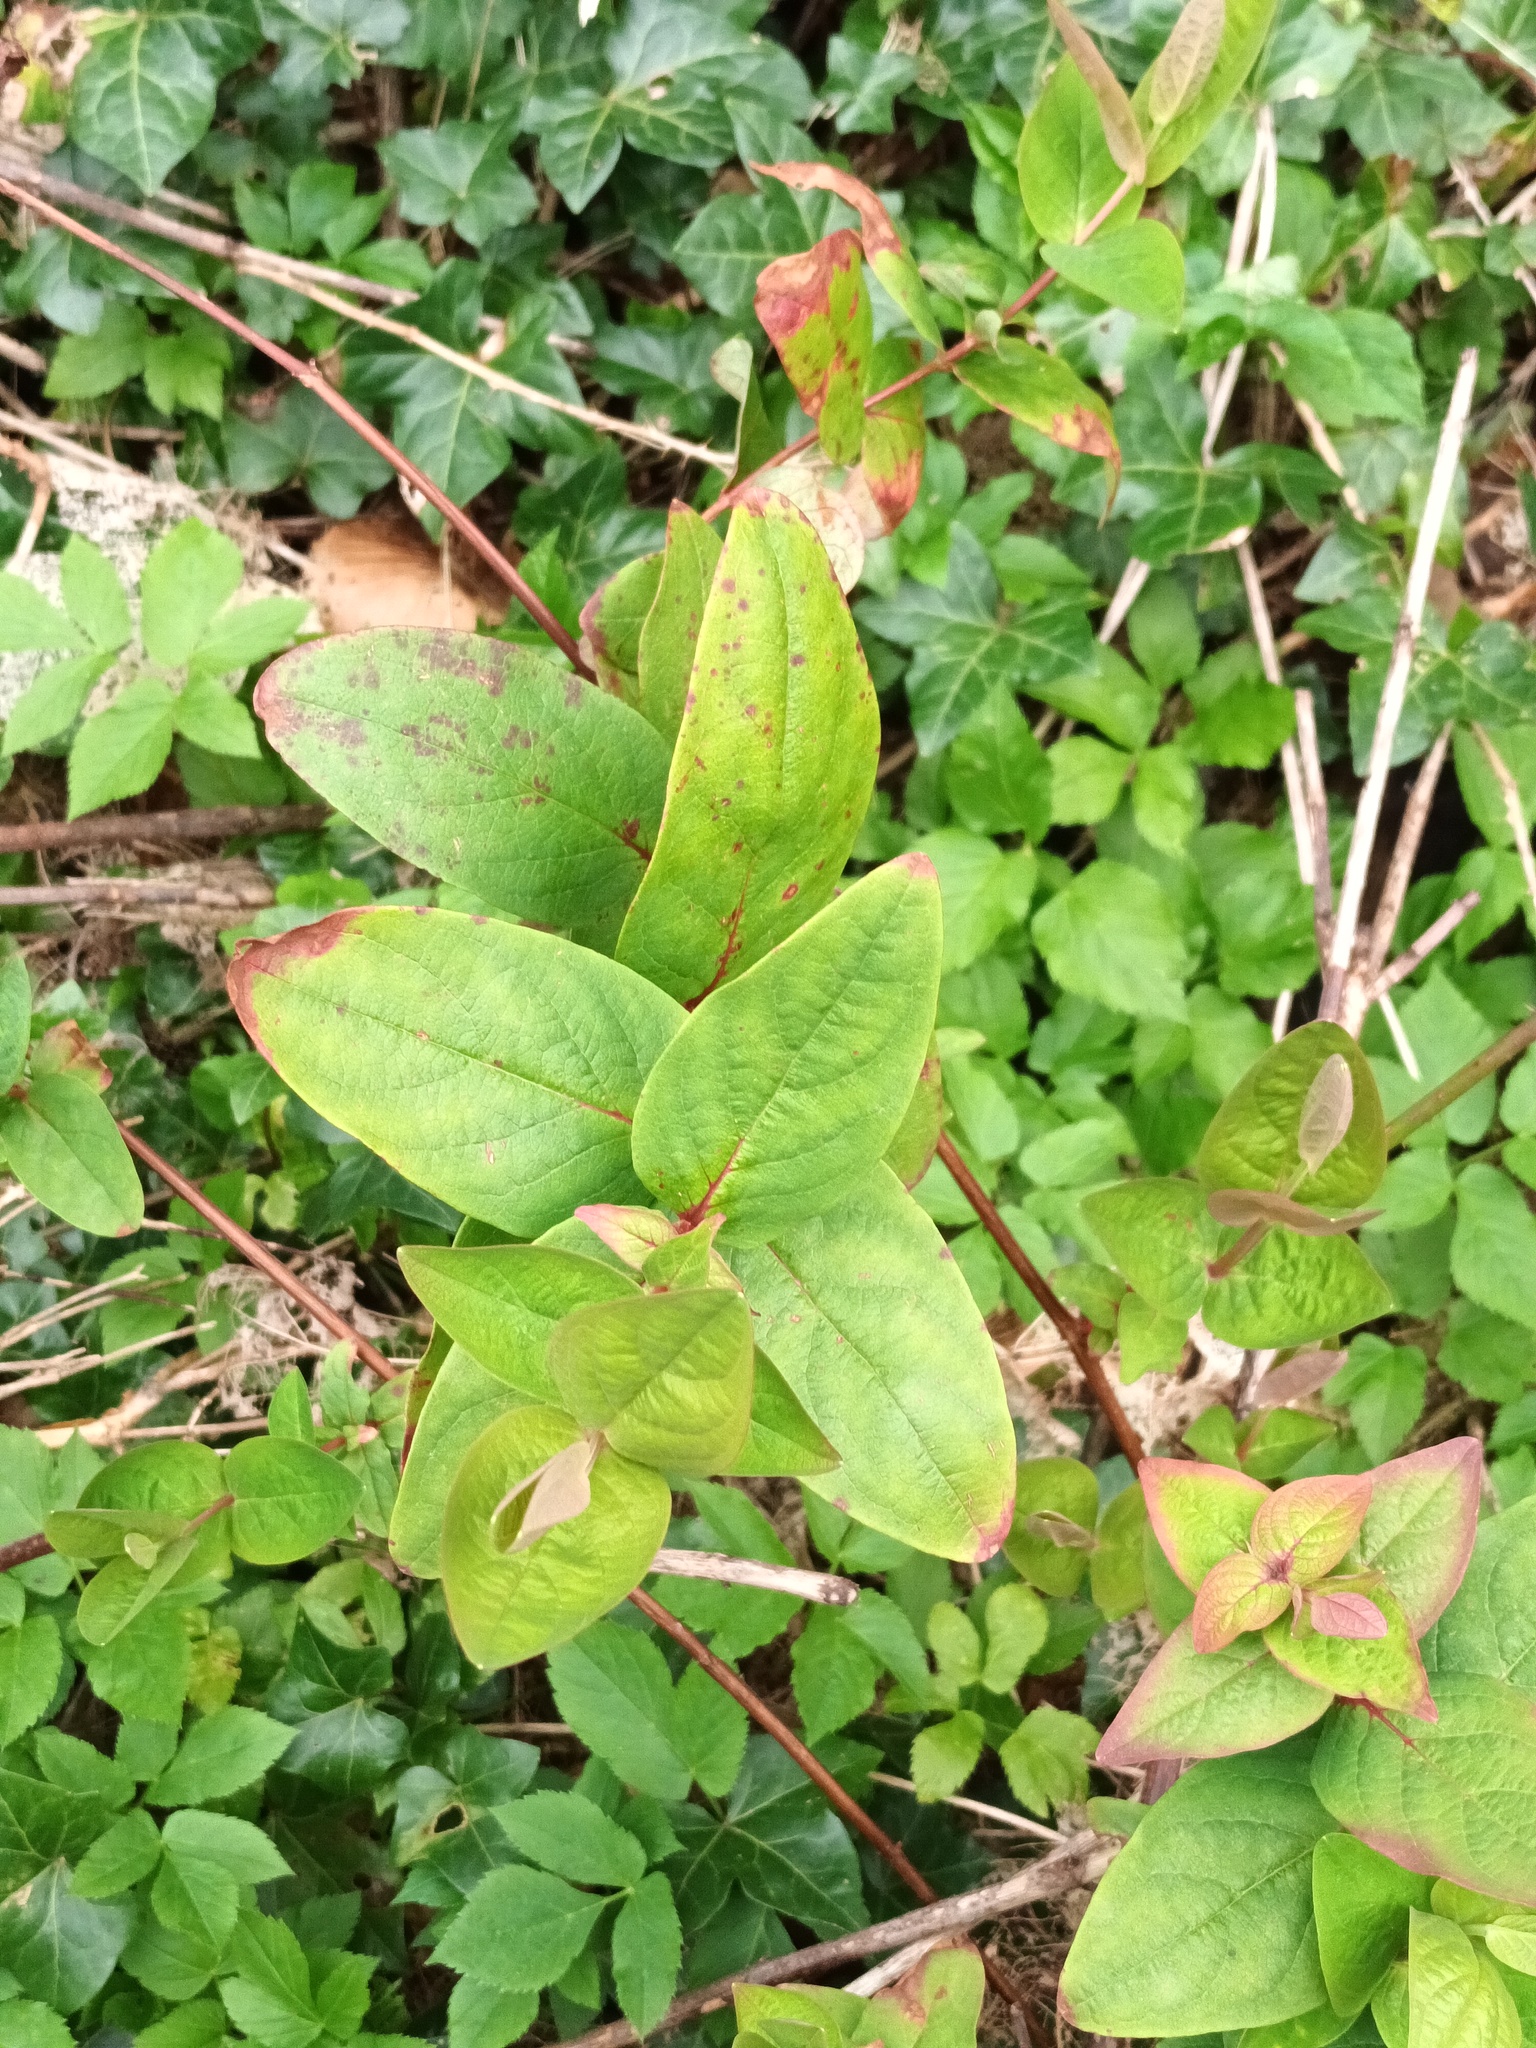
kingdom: Plantae
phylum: Tracheophyta
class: Magnoliopsida
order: Malpighiales
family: Hypericaceae
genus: Hypericum
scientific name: Hypericum androsaemum
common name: Sweet-amber
